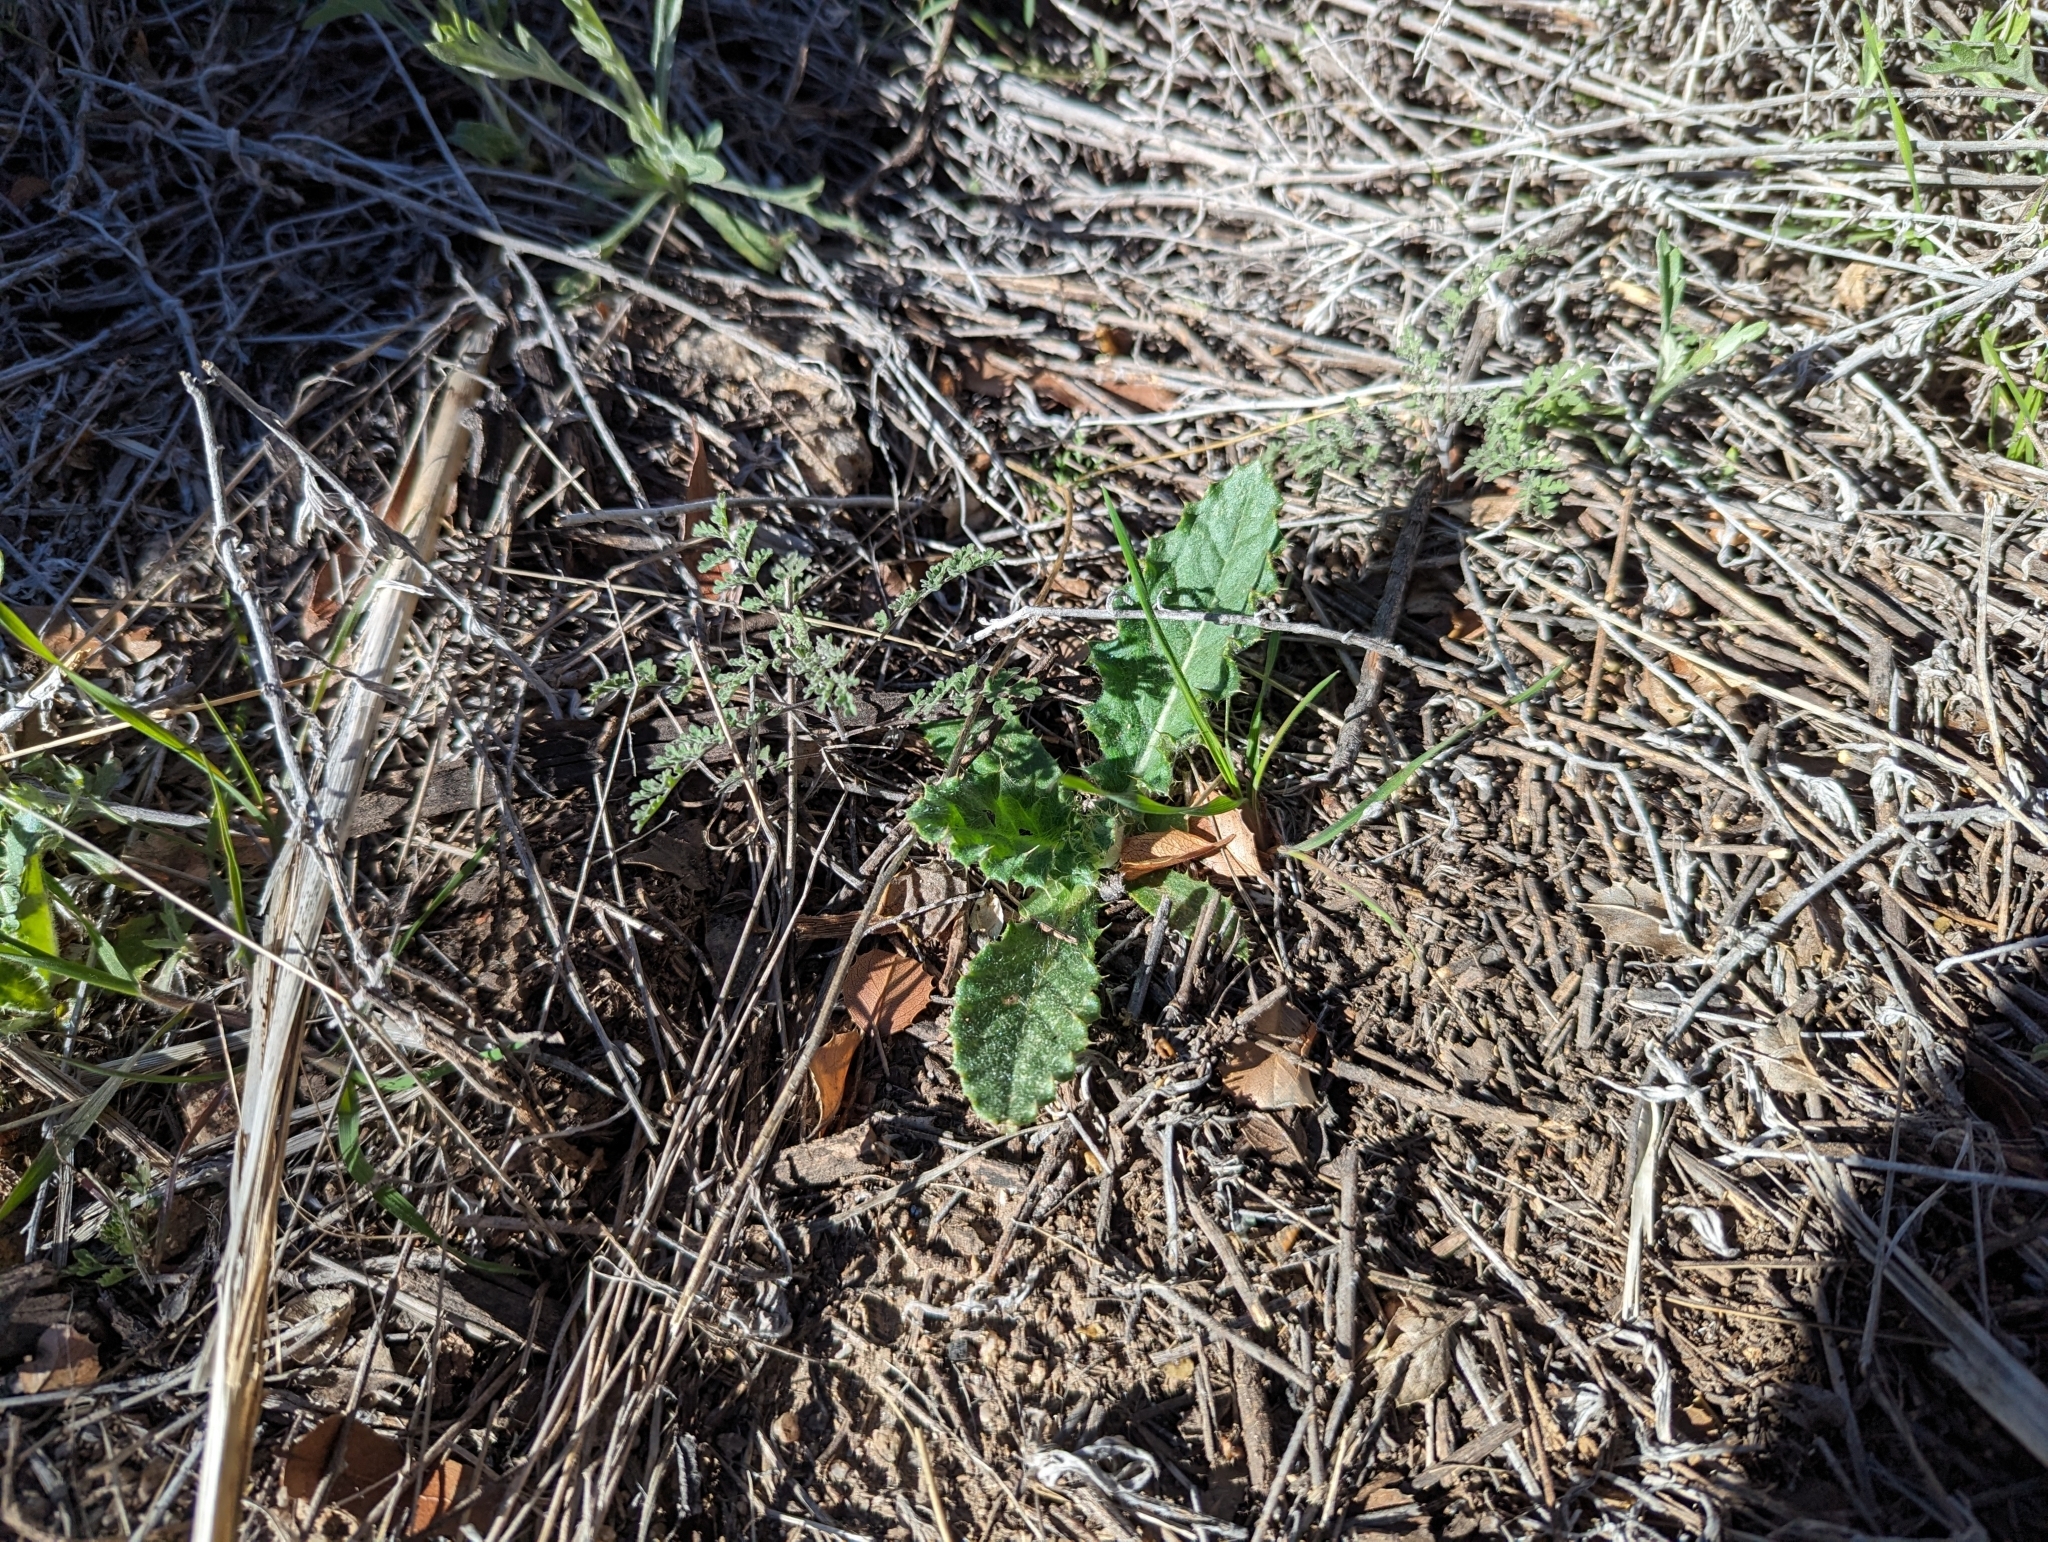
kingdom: Plantae
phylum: Tracheophyta
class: Magnoliopsida
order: Asterales
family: Asteraceae
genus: Cirsium
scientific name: Cirsium neomexicanum
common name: New mexico thistle
